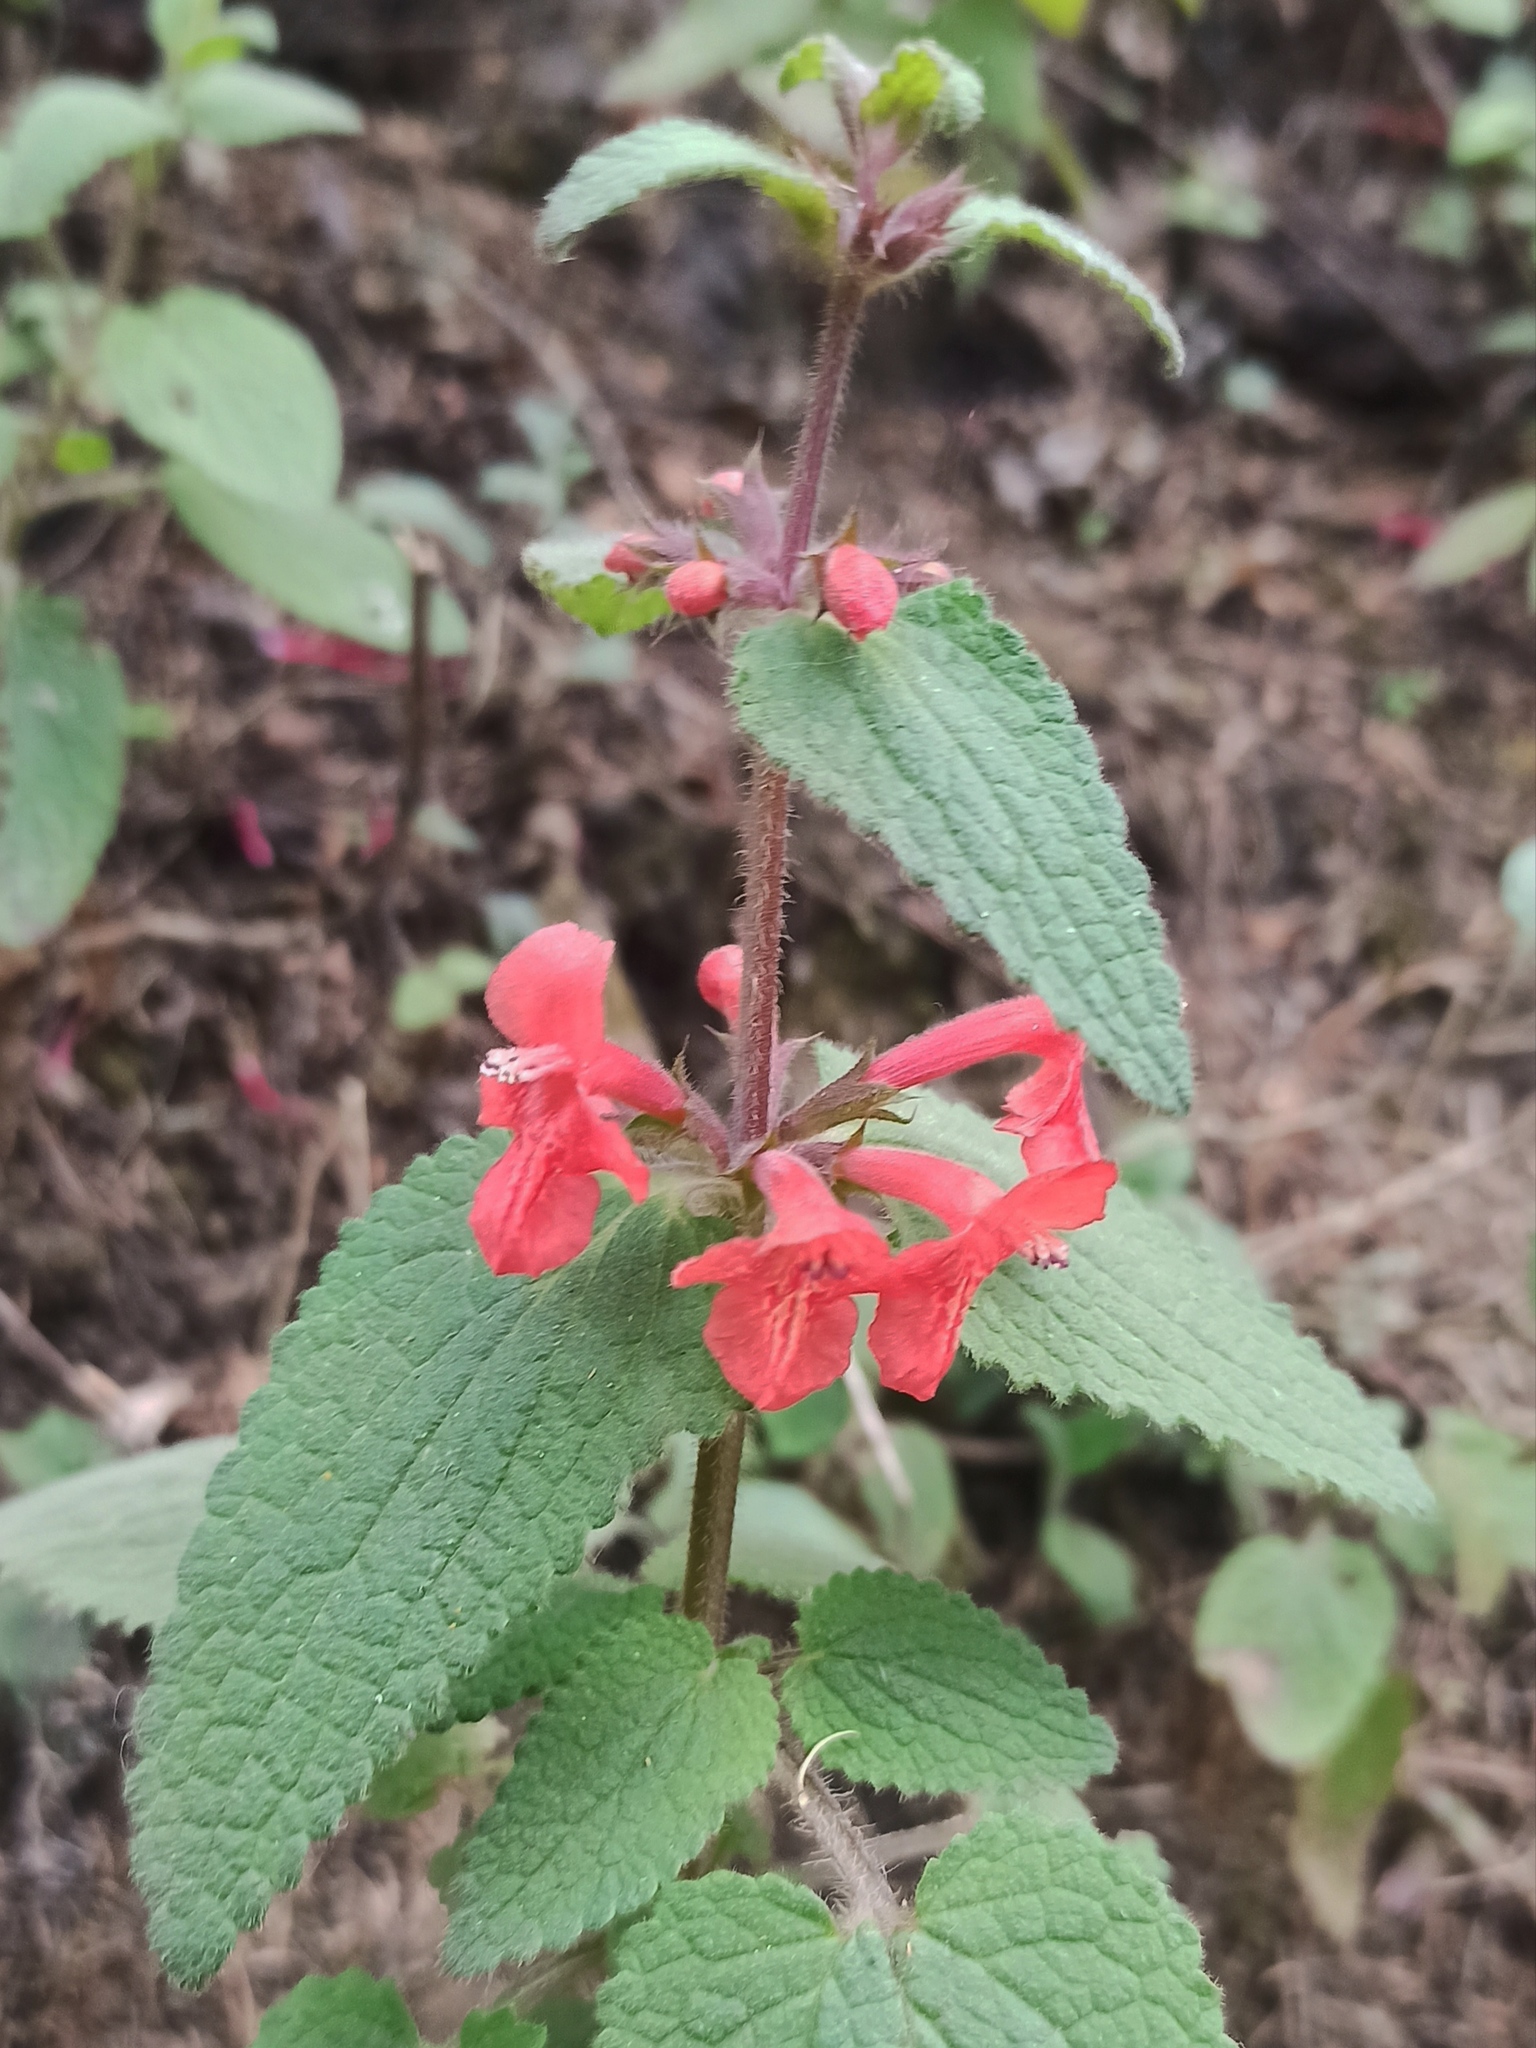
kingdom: Plantae
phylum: Tracheophyta
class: Magnoliopsida
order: Lamiales
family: Lamiaceae
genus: Stachys
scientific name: Stachys coccinea
